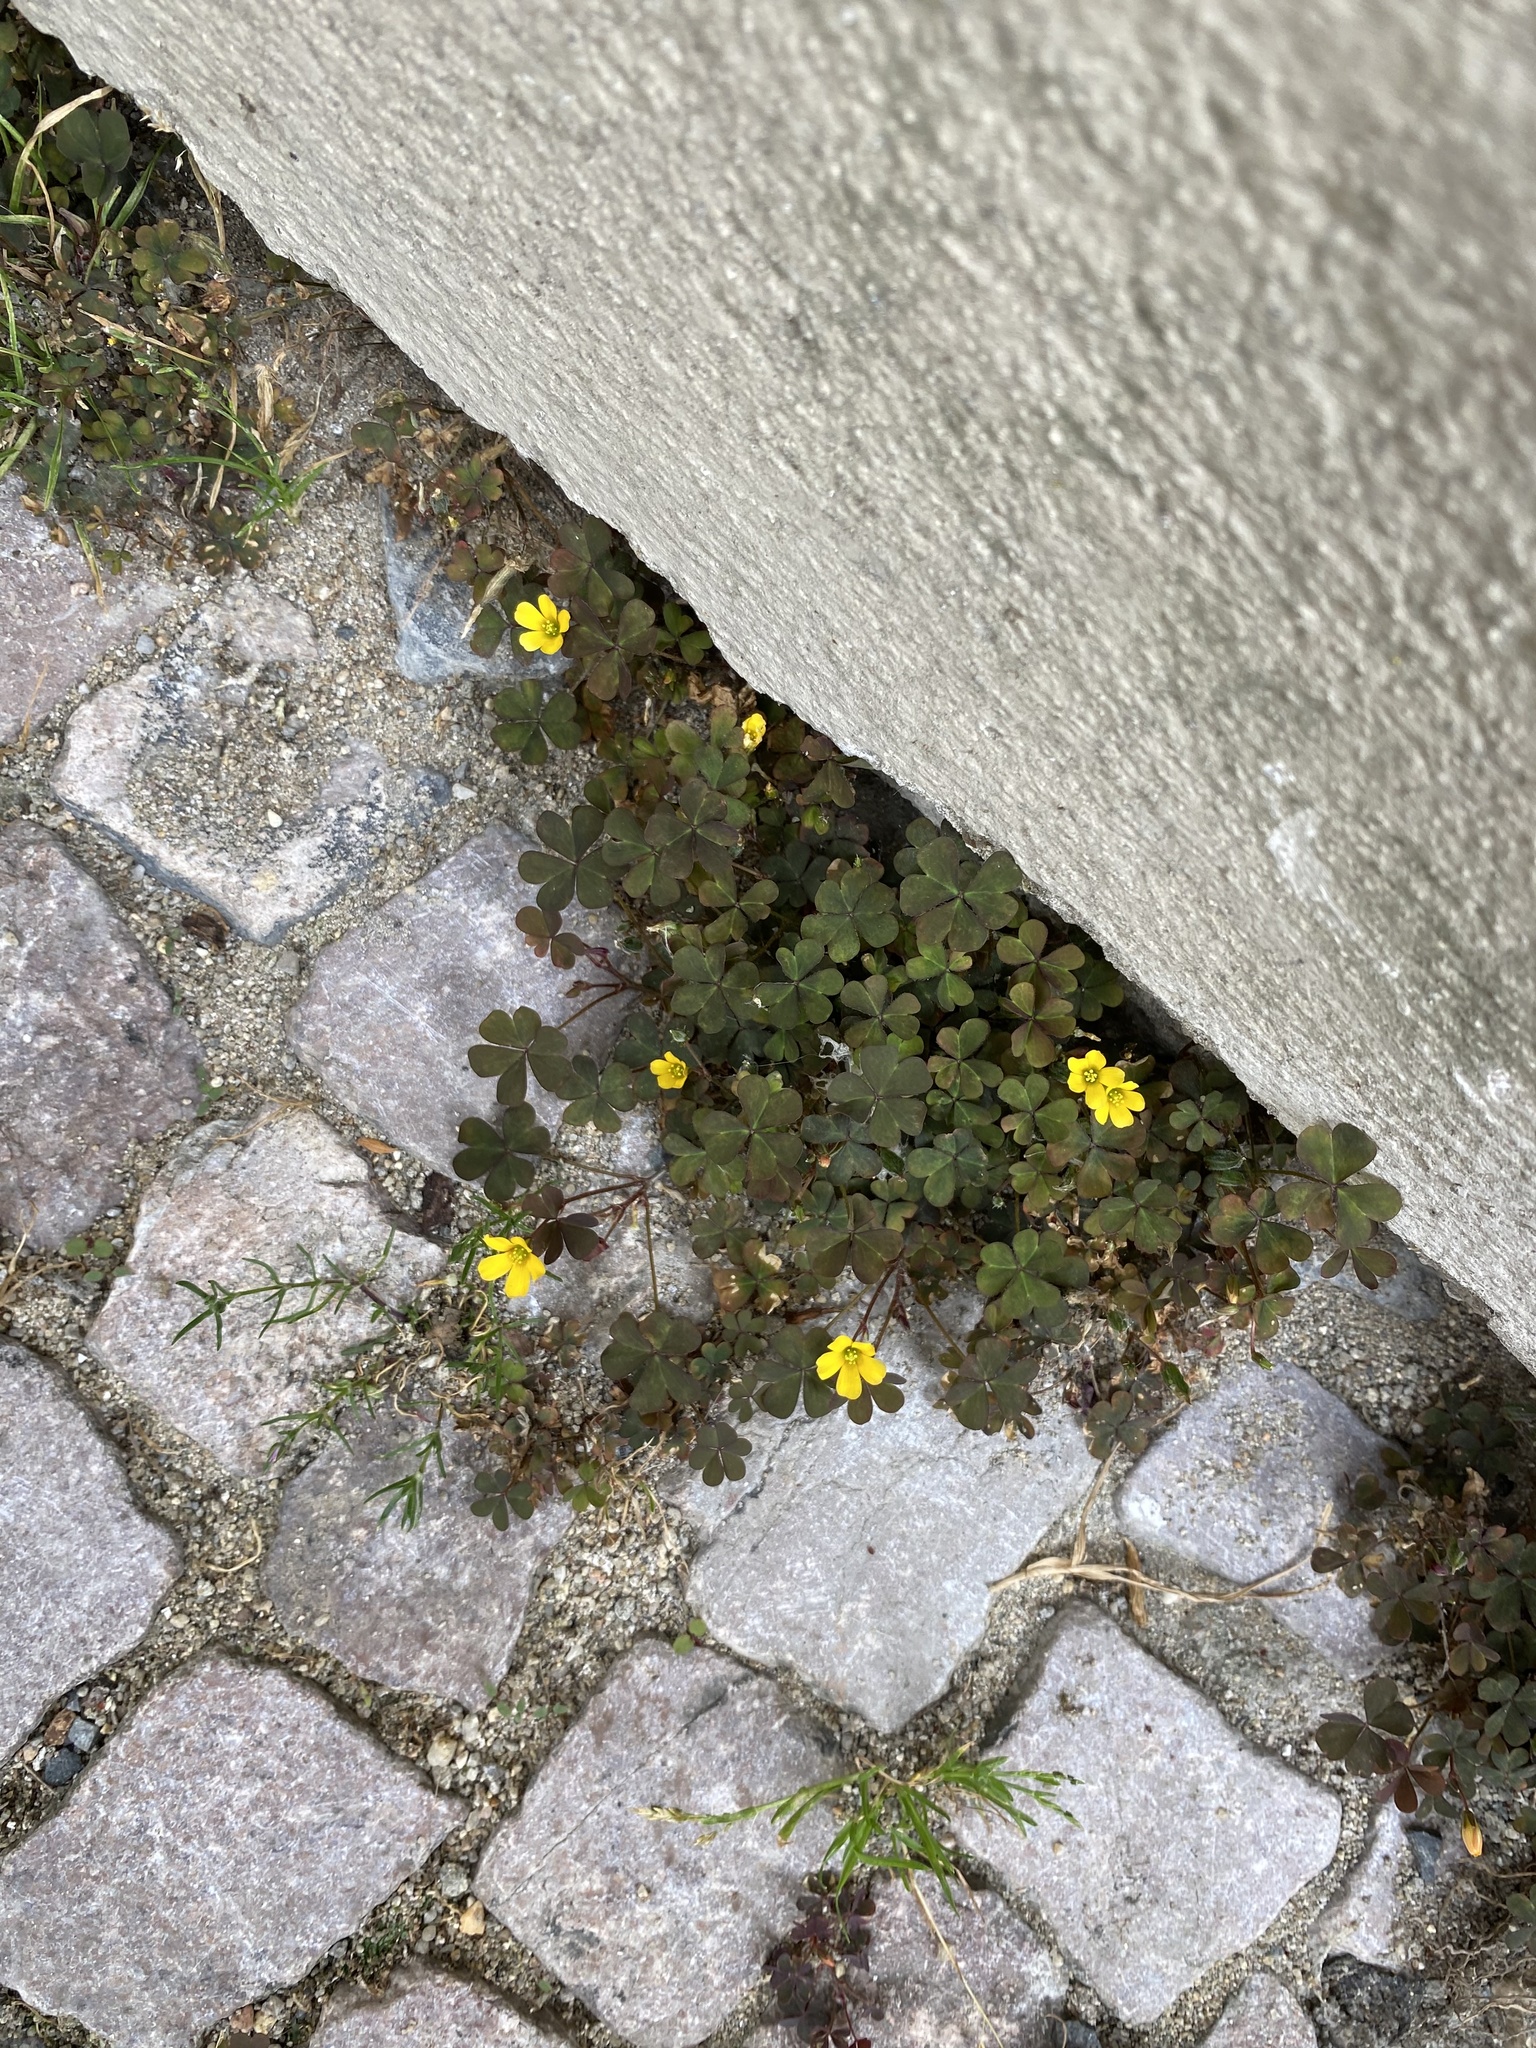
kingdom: Plantae
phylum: Tracheophyta
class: Magnoliopsida
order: Oxalidales
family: Oxalidaceae
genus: Oxalis
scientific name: Oxalis corniculata
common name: Procumbent yellow-sorrel
